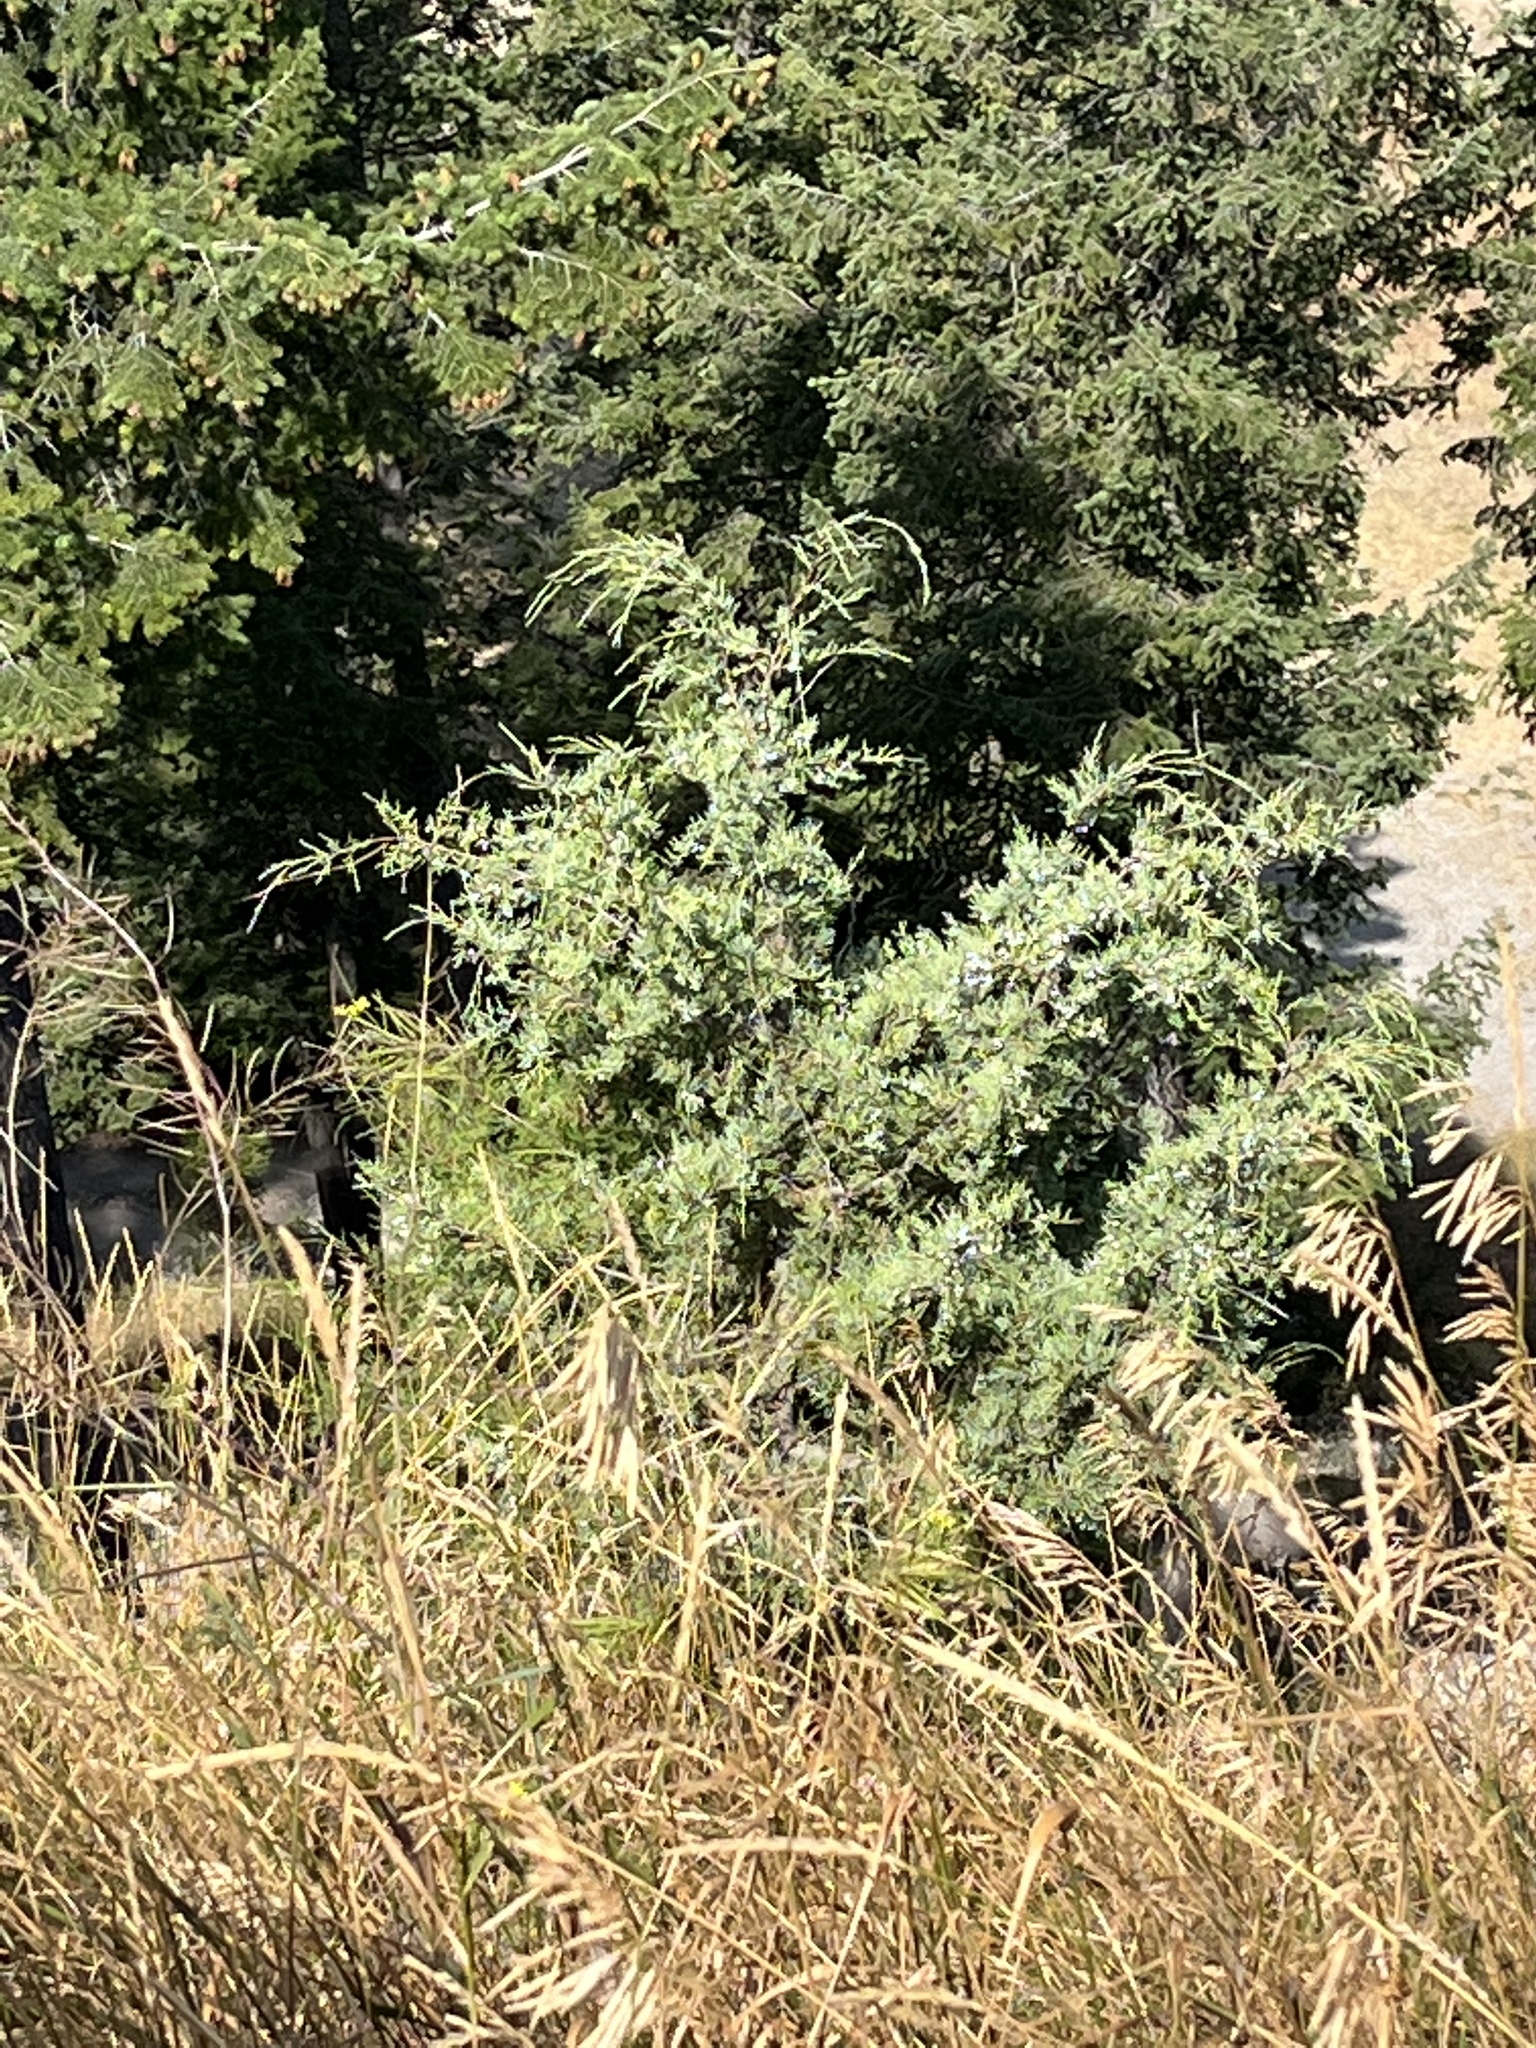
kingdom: Plantae
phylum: Tracheophyta
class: Pinopsida
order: Pinales
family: Cupressaceae
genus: Juniperus
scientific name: Juniperus scopulorum
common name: Rocky mountain juniper
